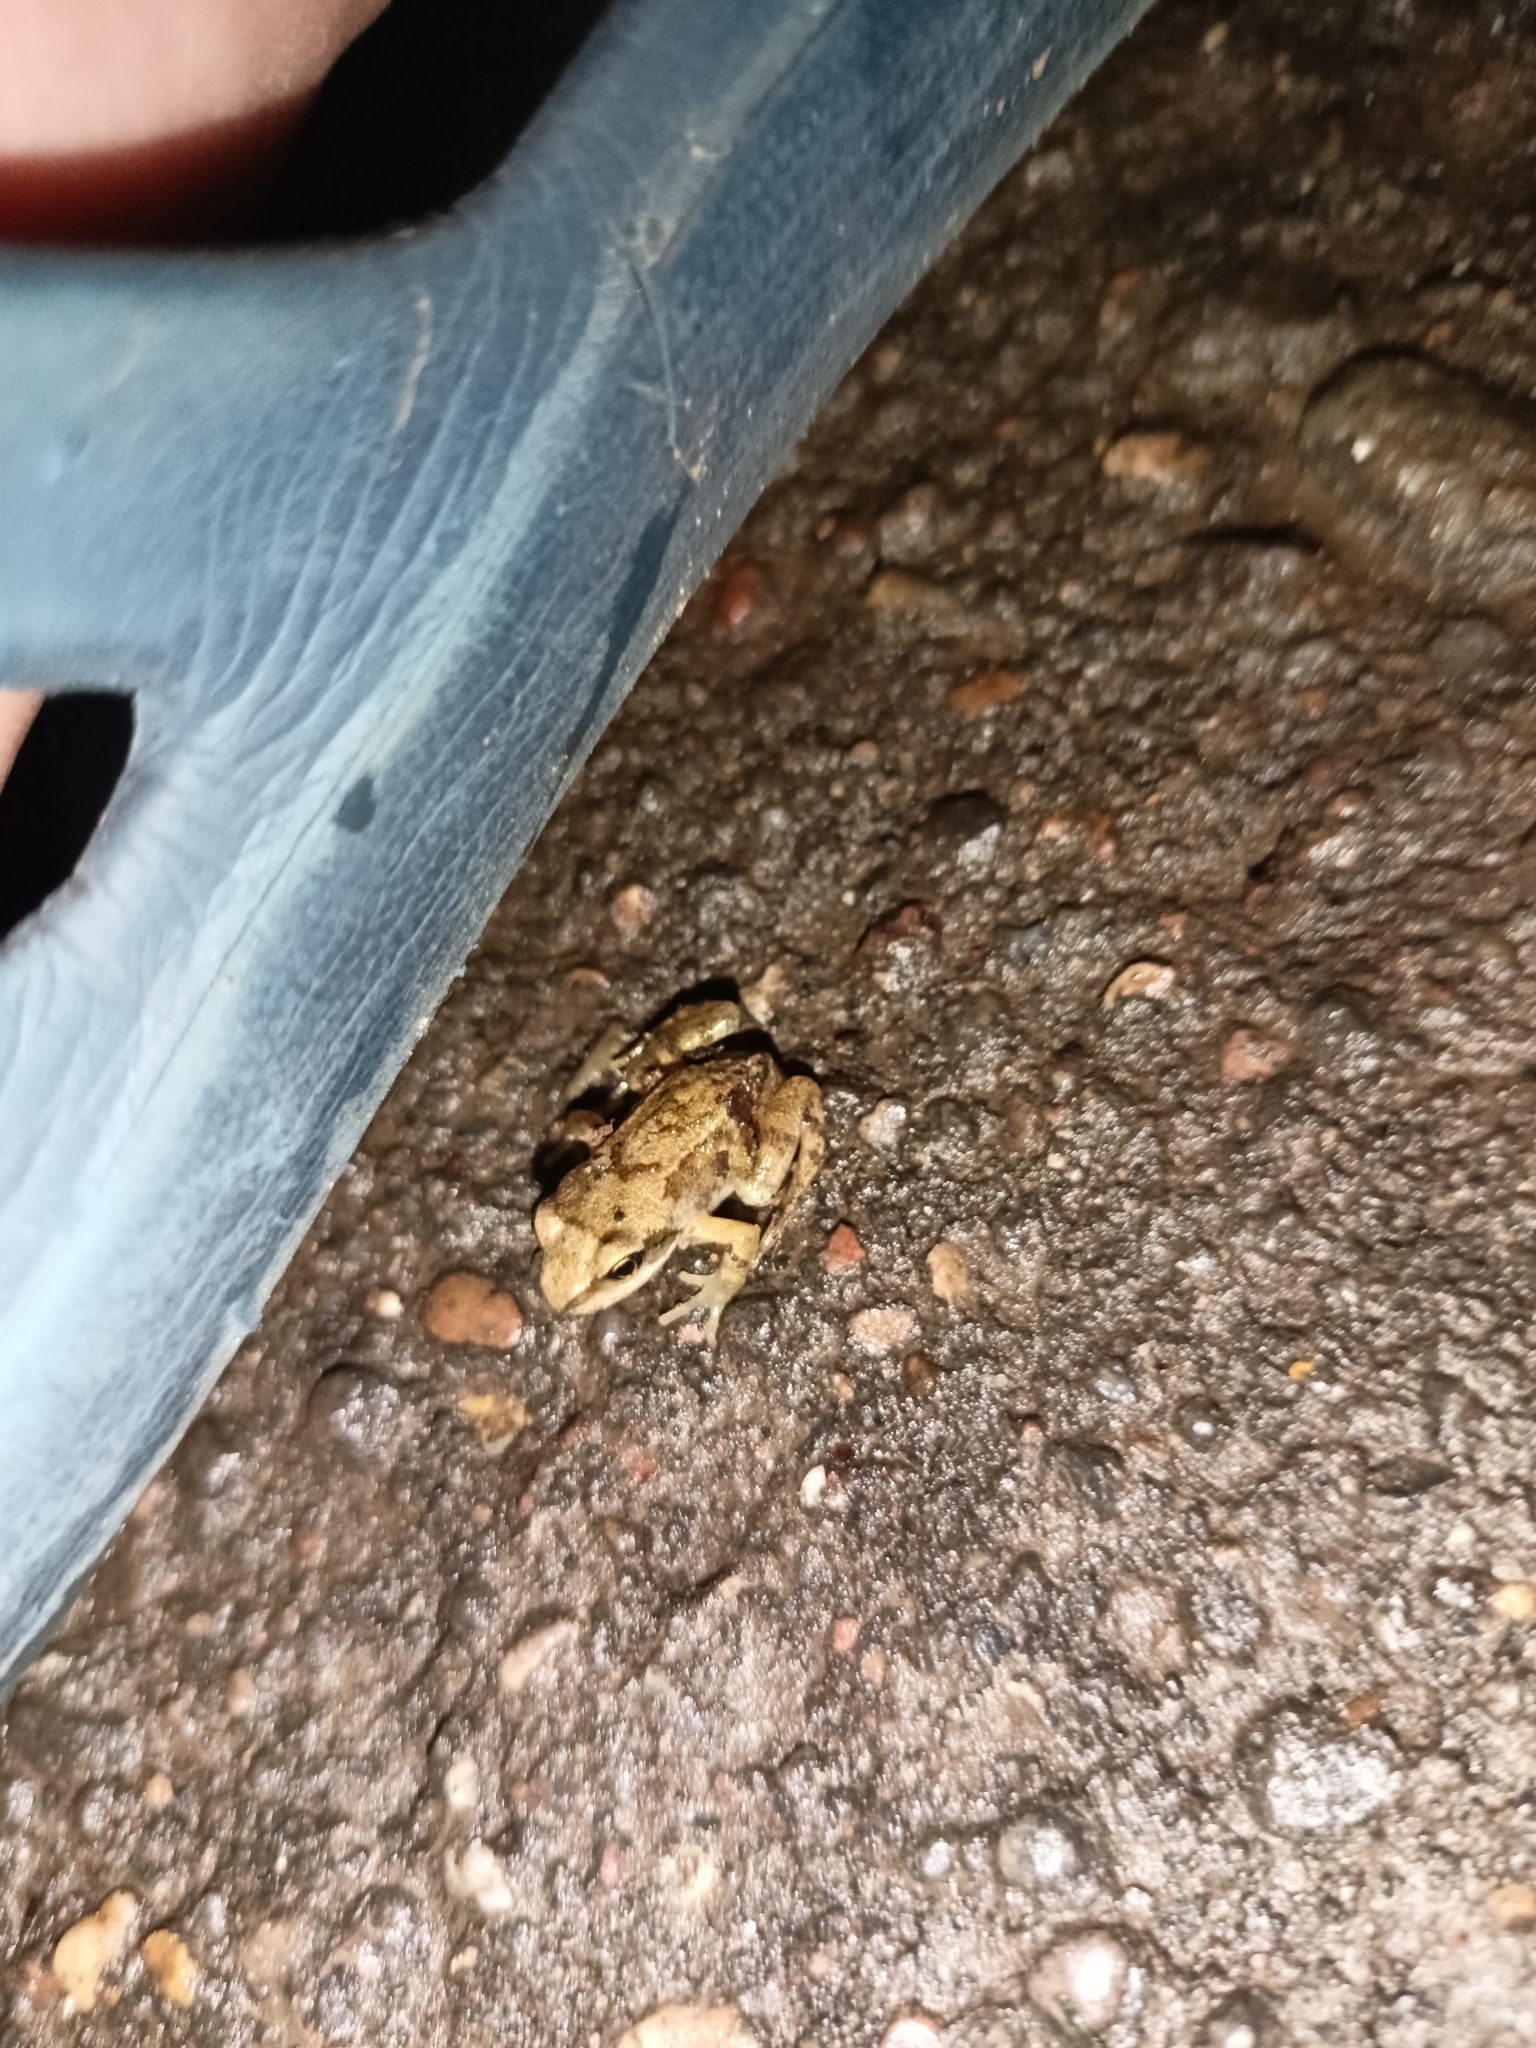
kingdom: Animalia
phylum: Chordata
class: Amphibia
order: Anura
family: Ranidae
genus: Rana
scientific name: Rana temporaria
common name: Common frog
